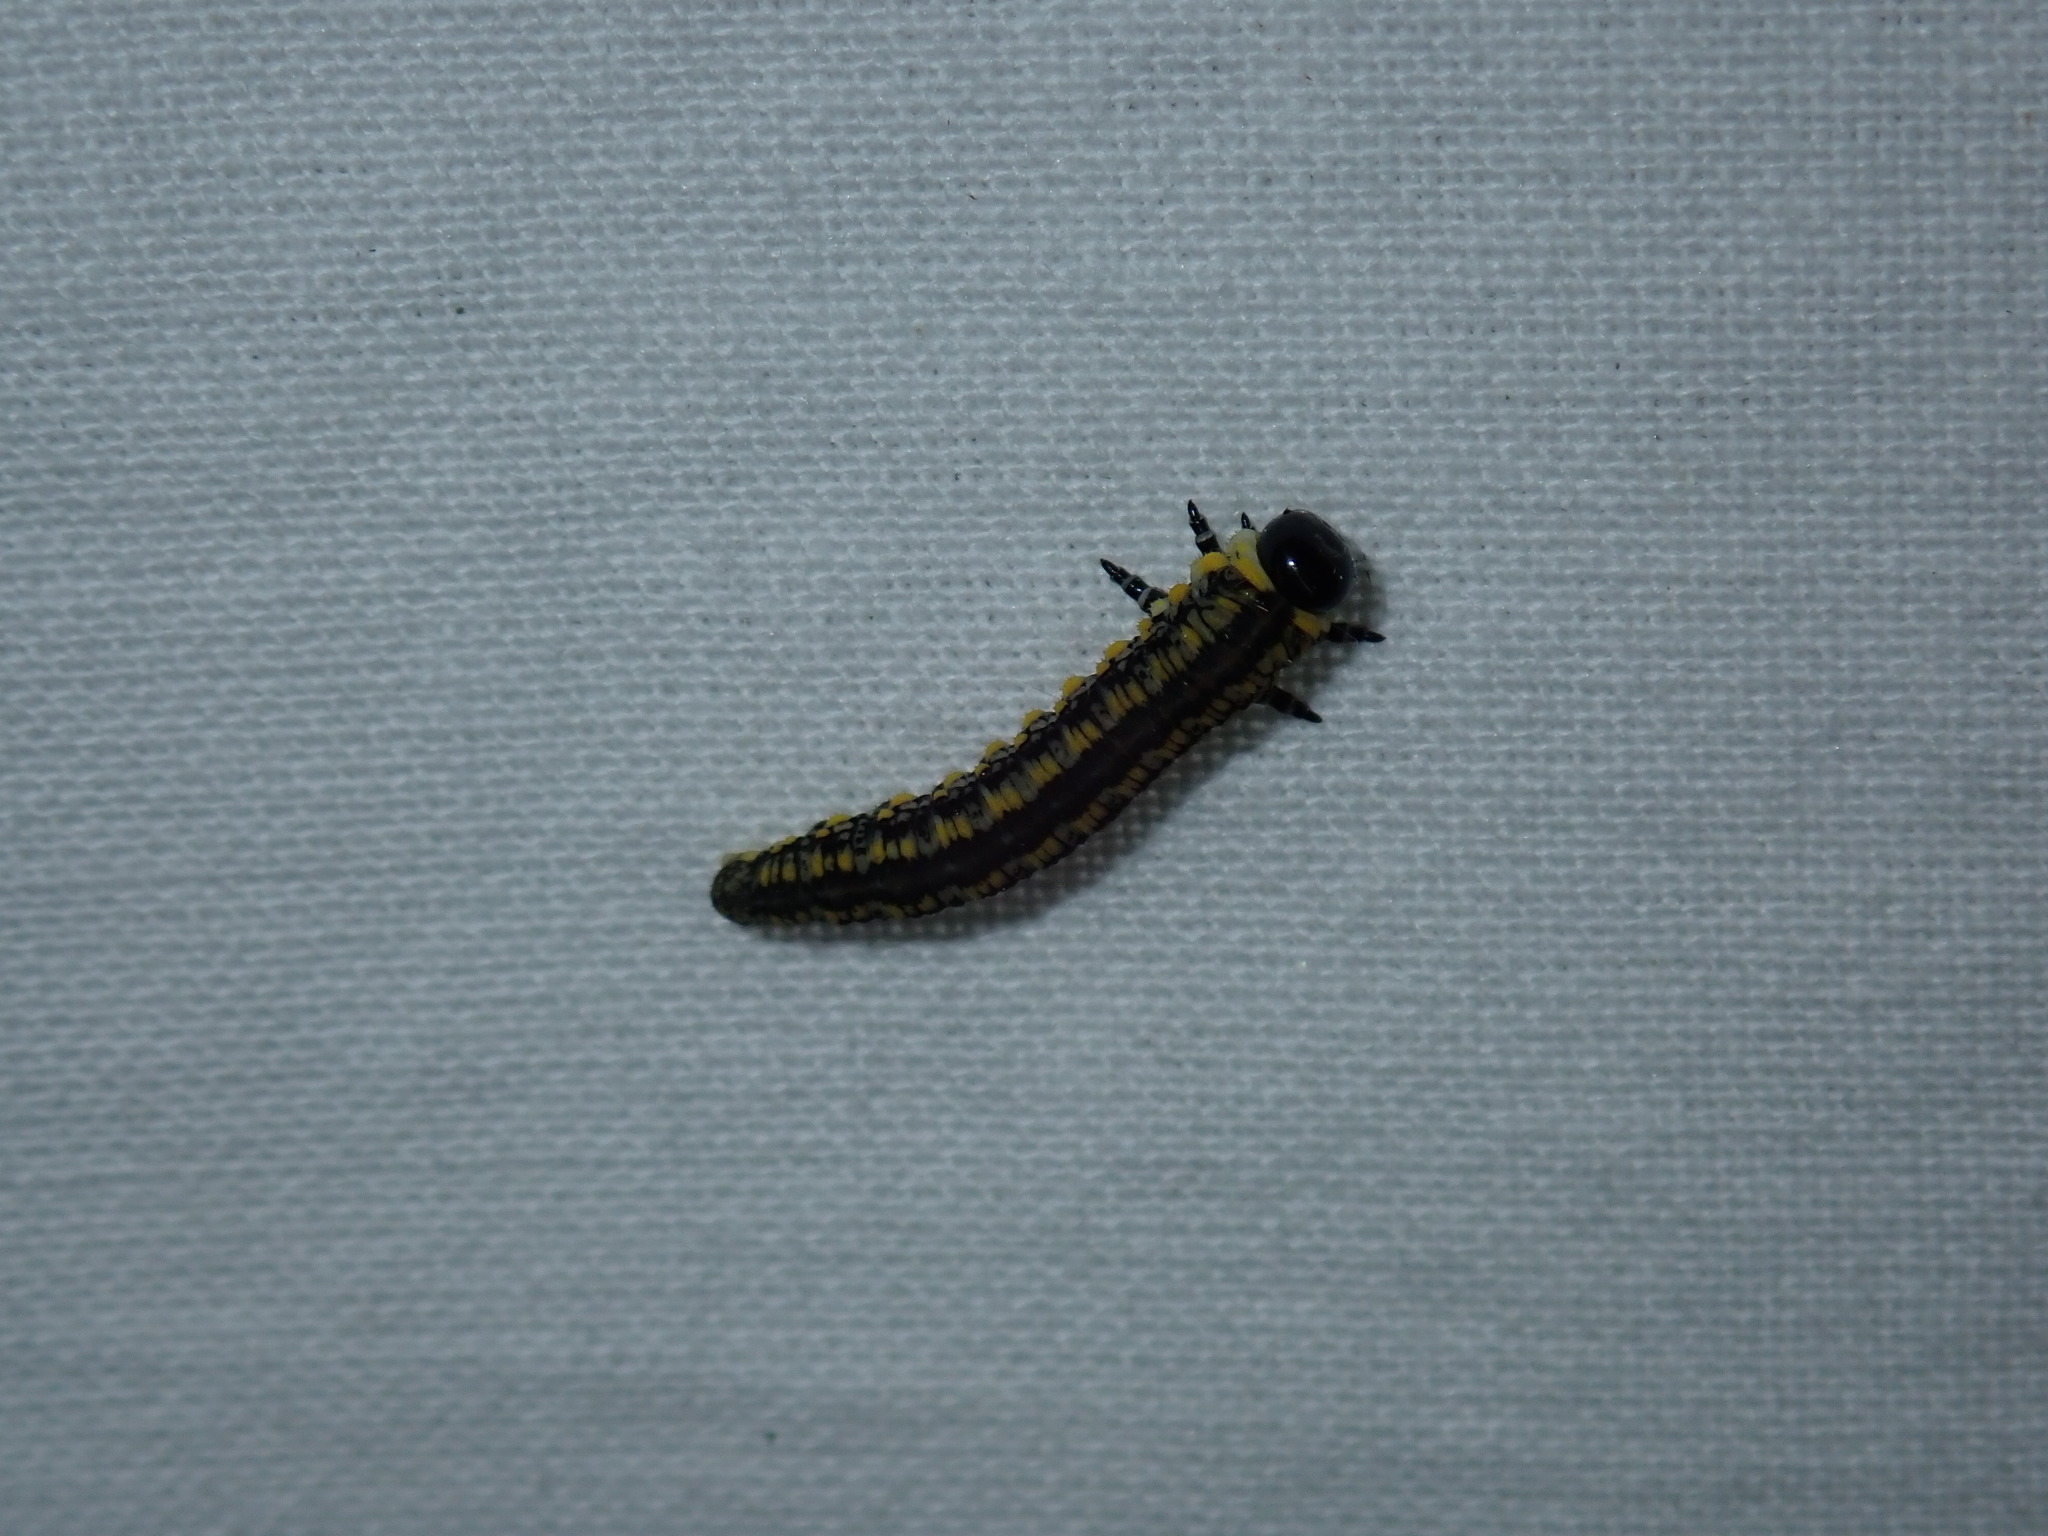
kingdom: Animalia
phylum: Arthropoda
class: Insecta
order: Hymenoptera
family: Diprionidae
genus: Diprion
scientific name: Diprion similis
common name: Pine sawfly
